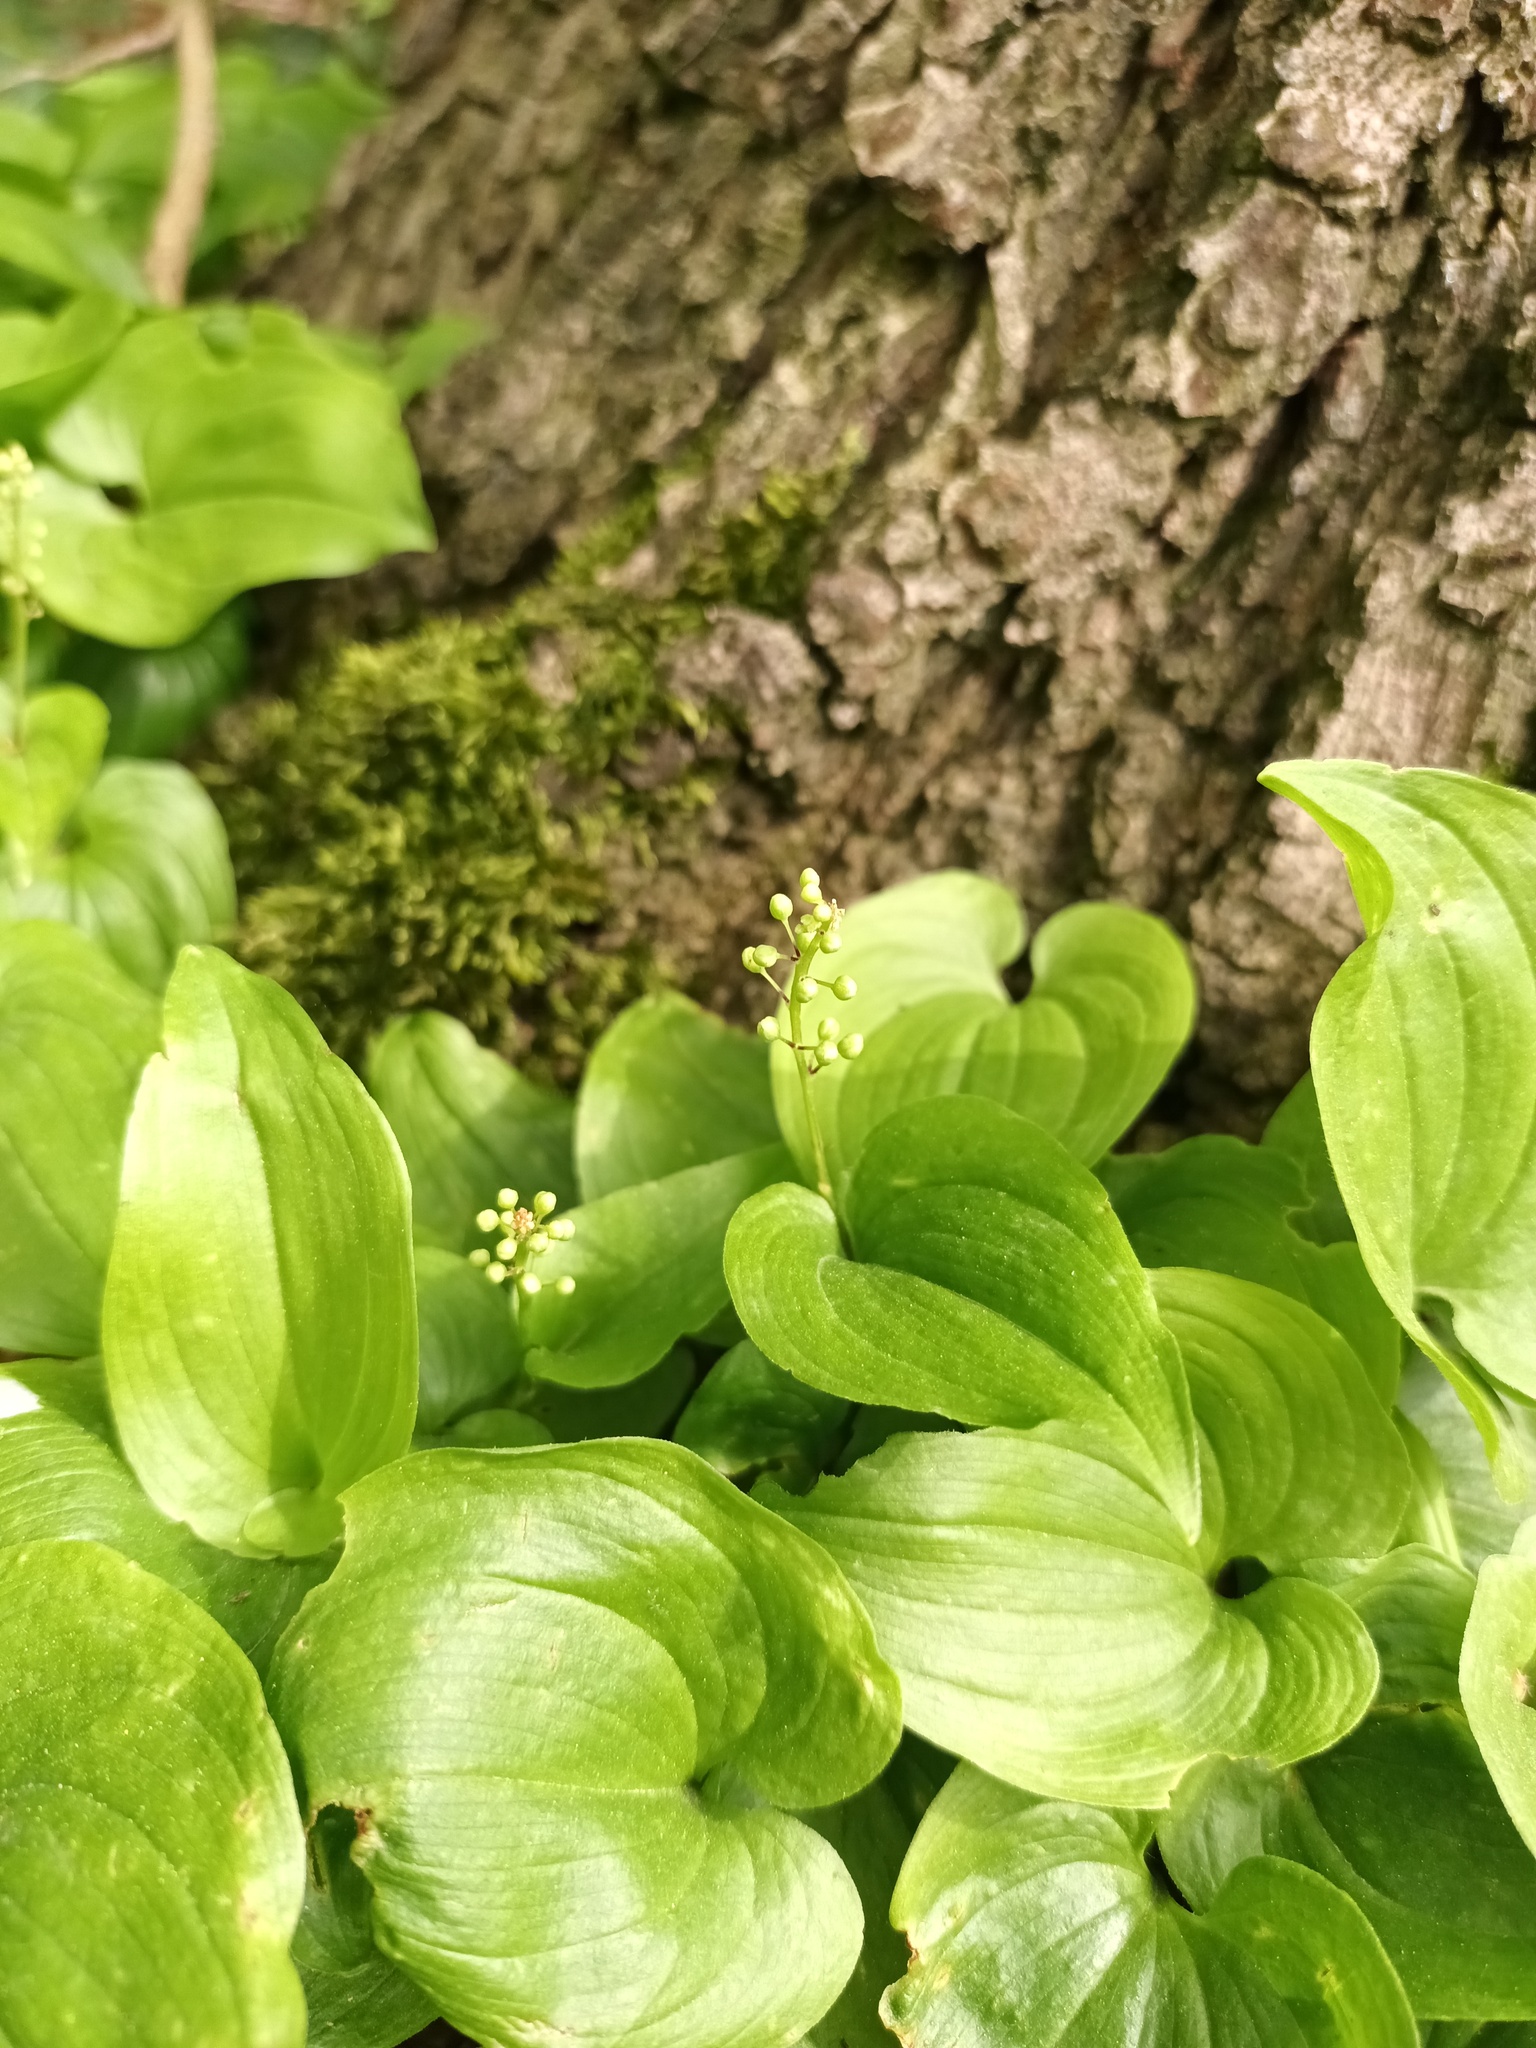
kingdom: Plantae
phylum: Tracheophyta
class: Liliopsida
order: Asparagales
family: Asparagaceae
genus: Maianthemum
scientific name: Maianthemum bifolium
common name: May lily
